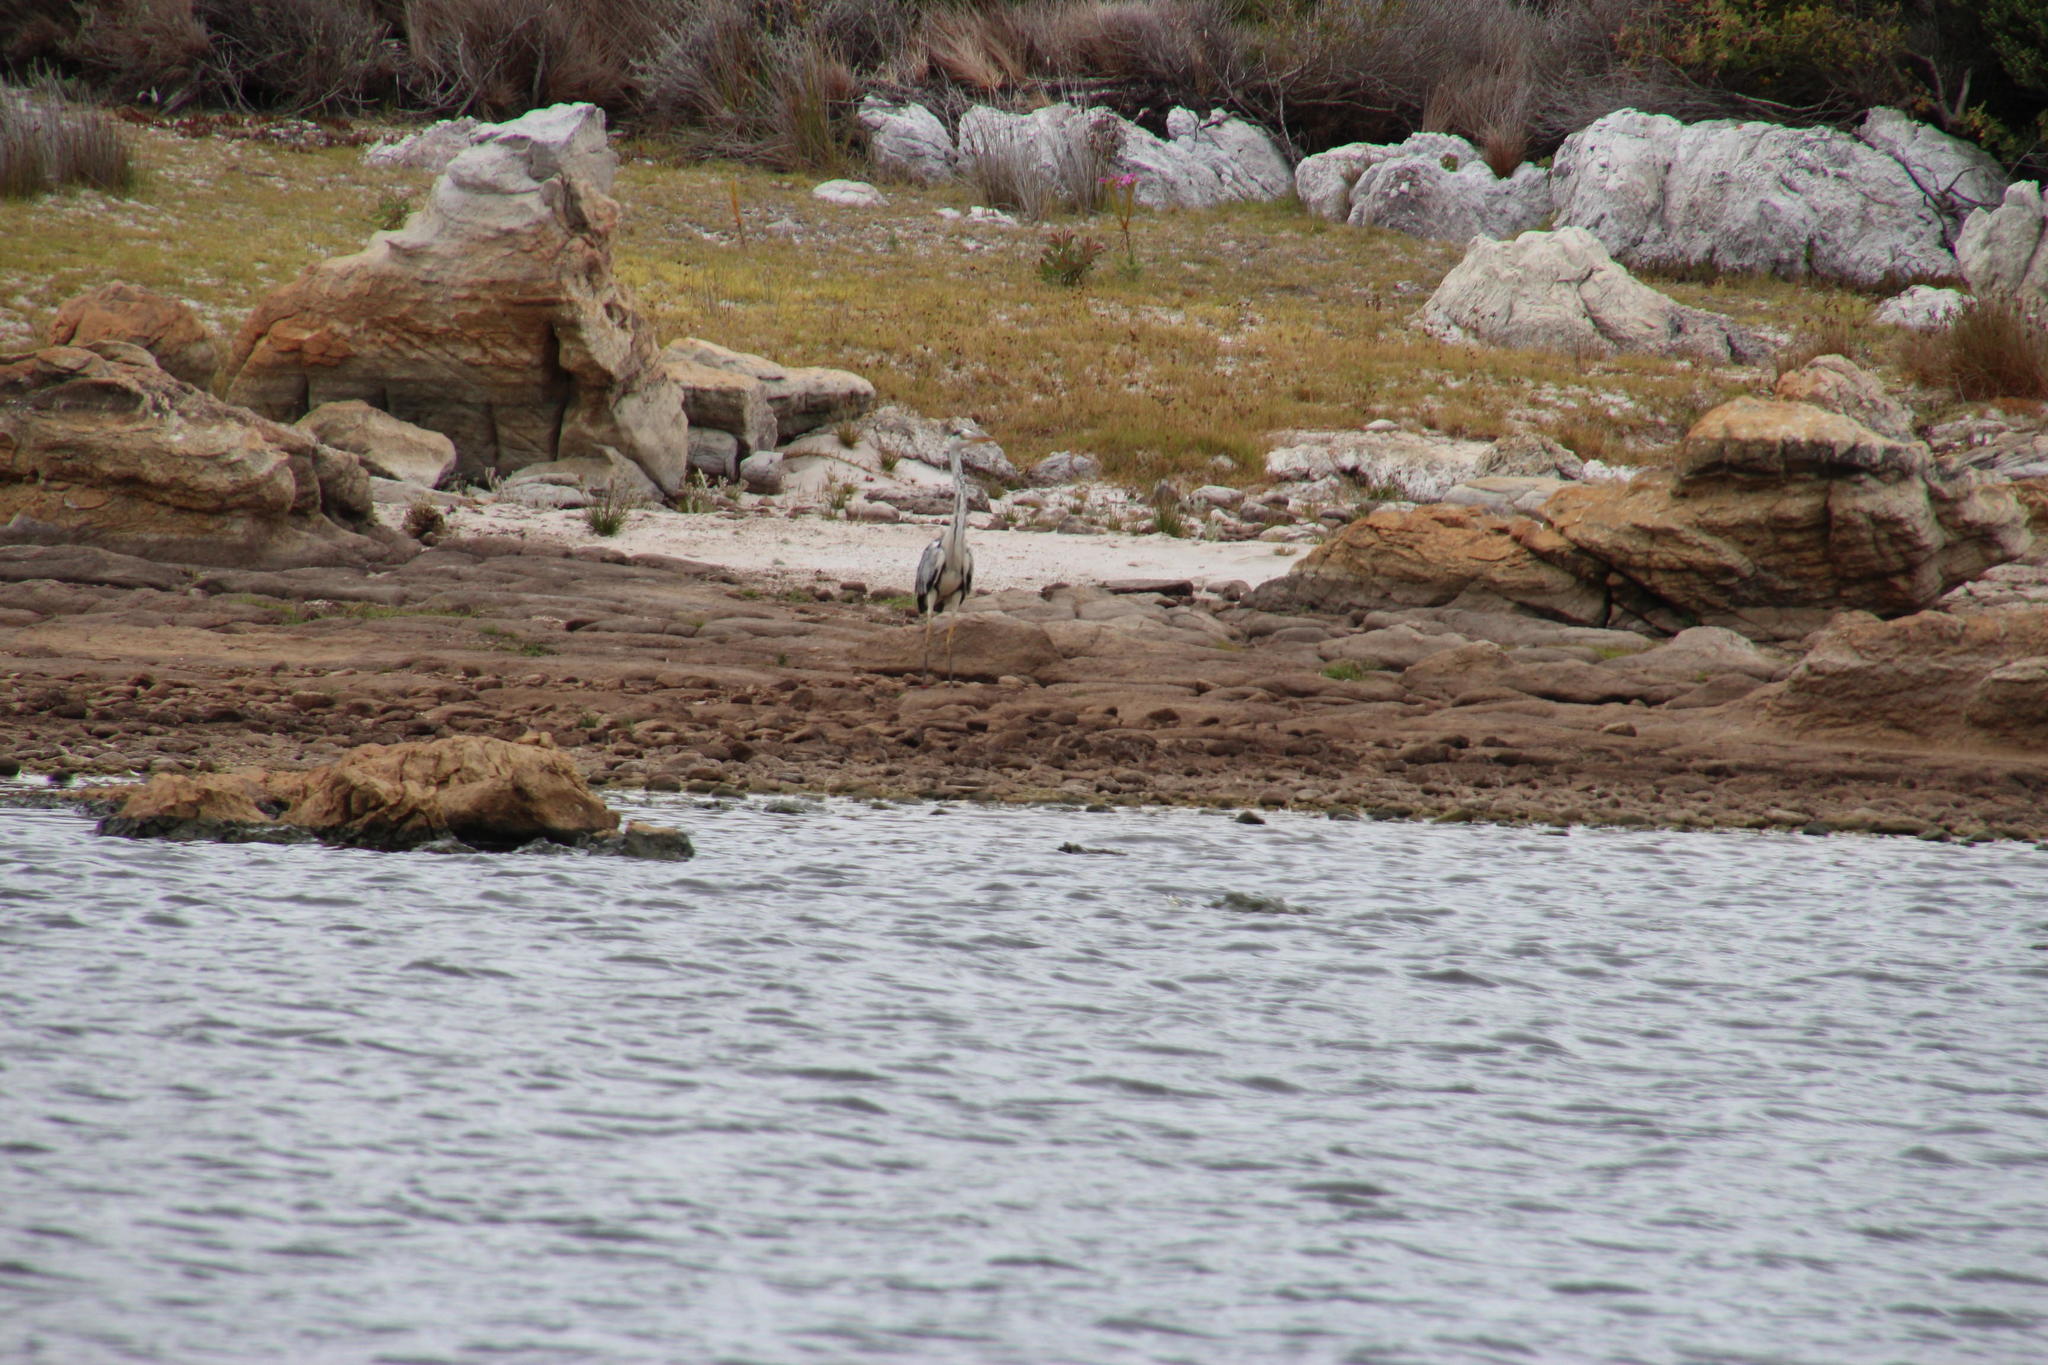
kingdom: Animalia
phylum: Chordata
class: Aves
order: Pelecaniformes
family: Ardeidae
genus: Ardea
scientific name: Ardea cinerea
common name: Grey heron
